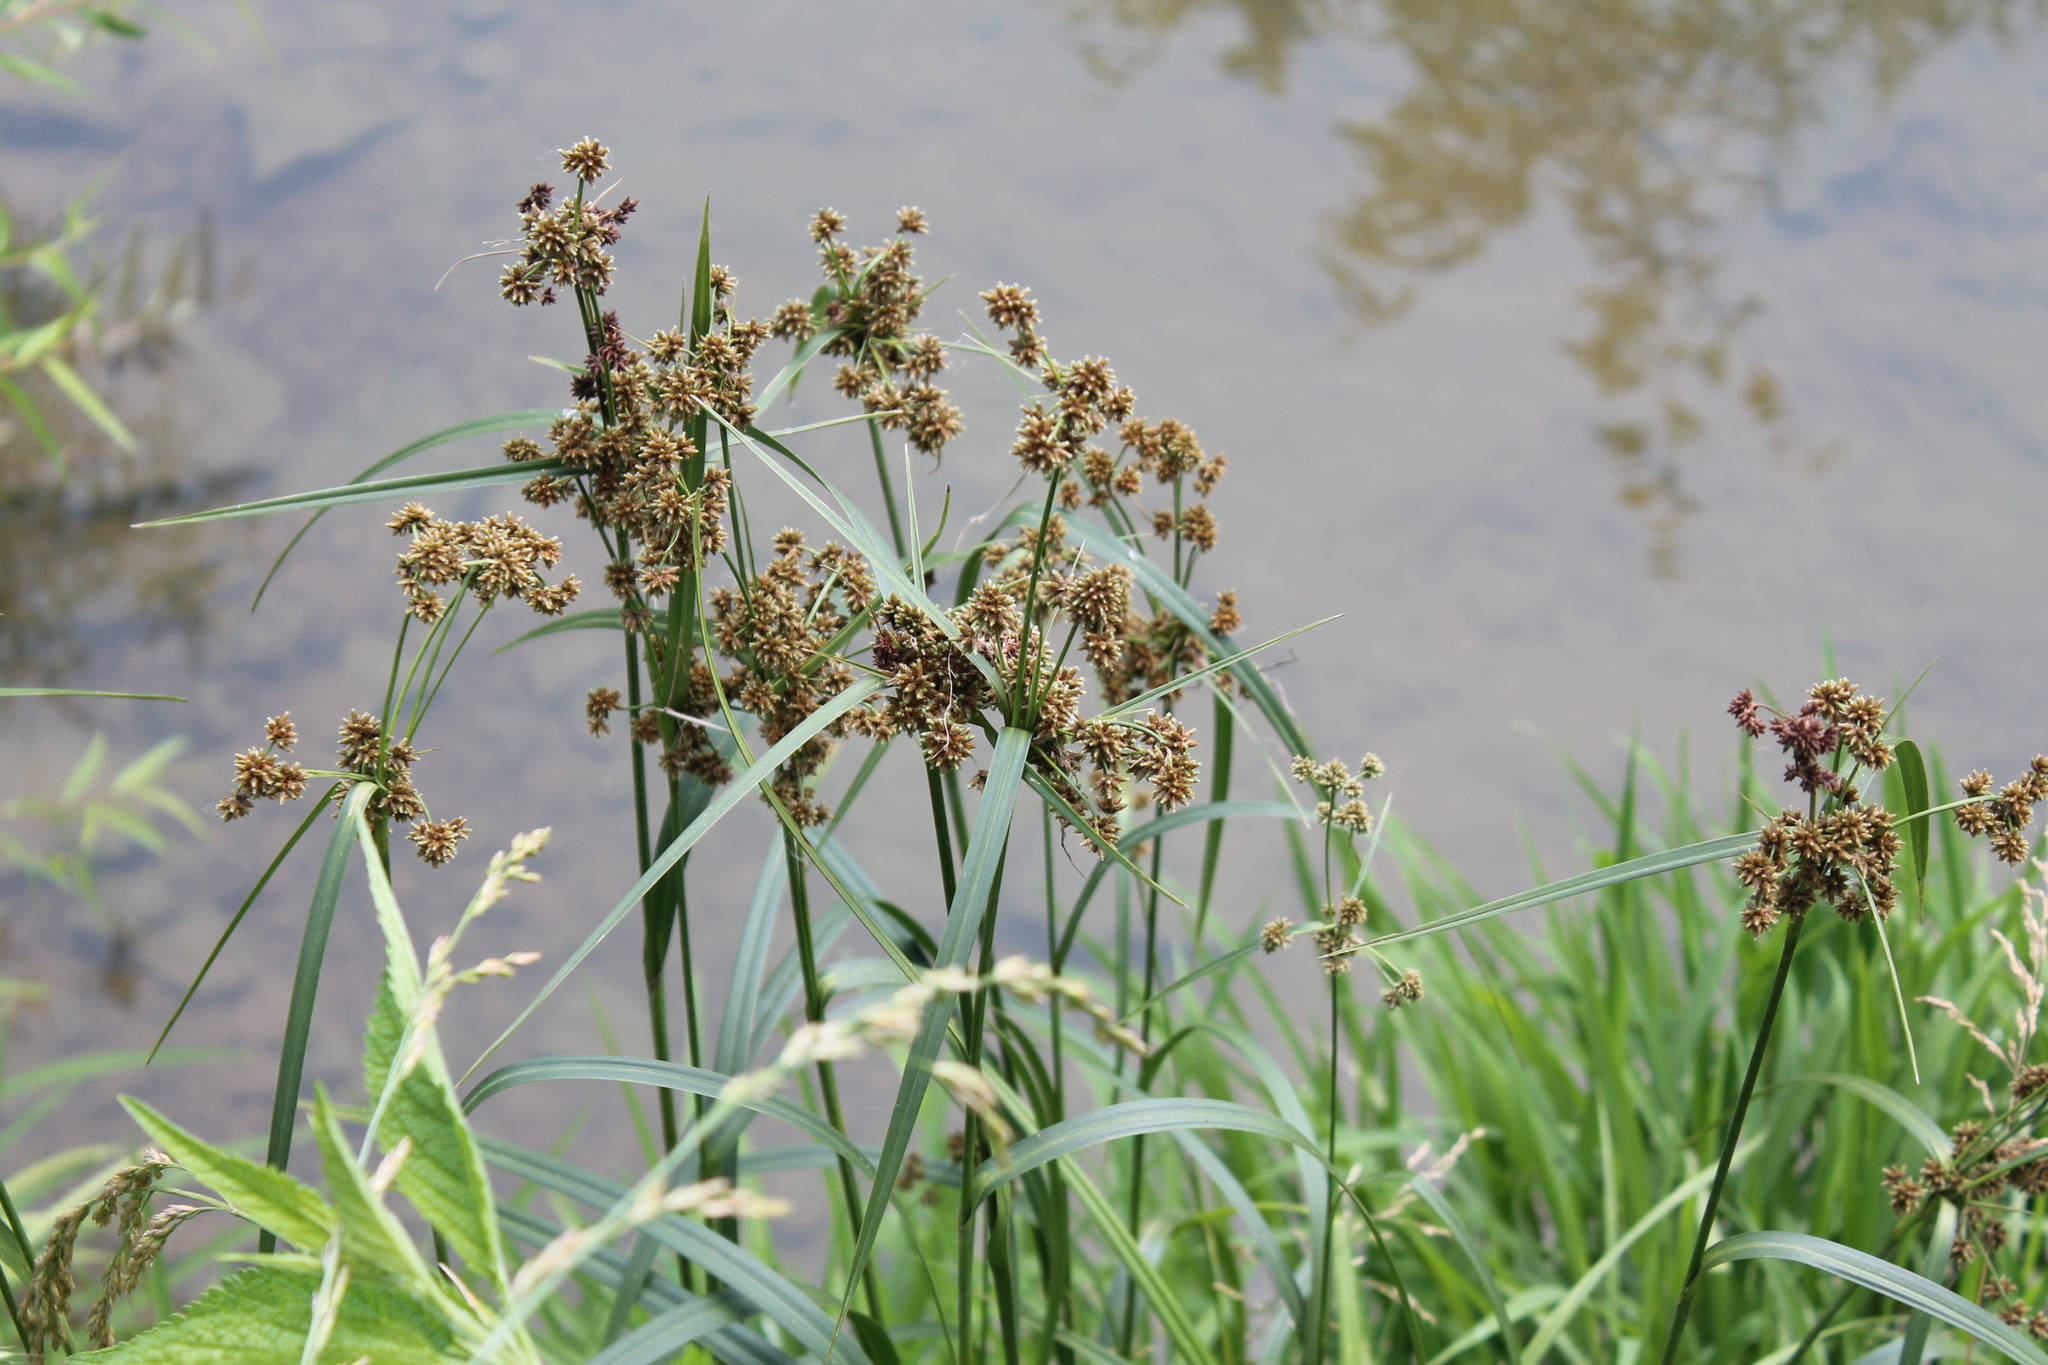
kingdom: Plantae
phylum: Tracheophyta
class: Liliopsida
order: Poales
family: Cyperaceae
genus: Scirpus
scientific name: Scirpus atrovirens
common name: Black bulrush
